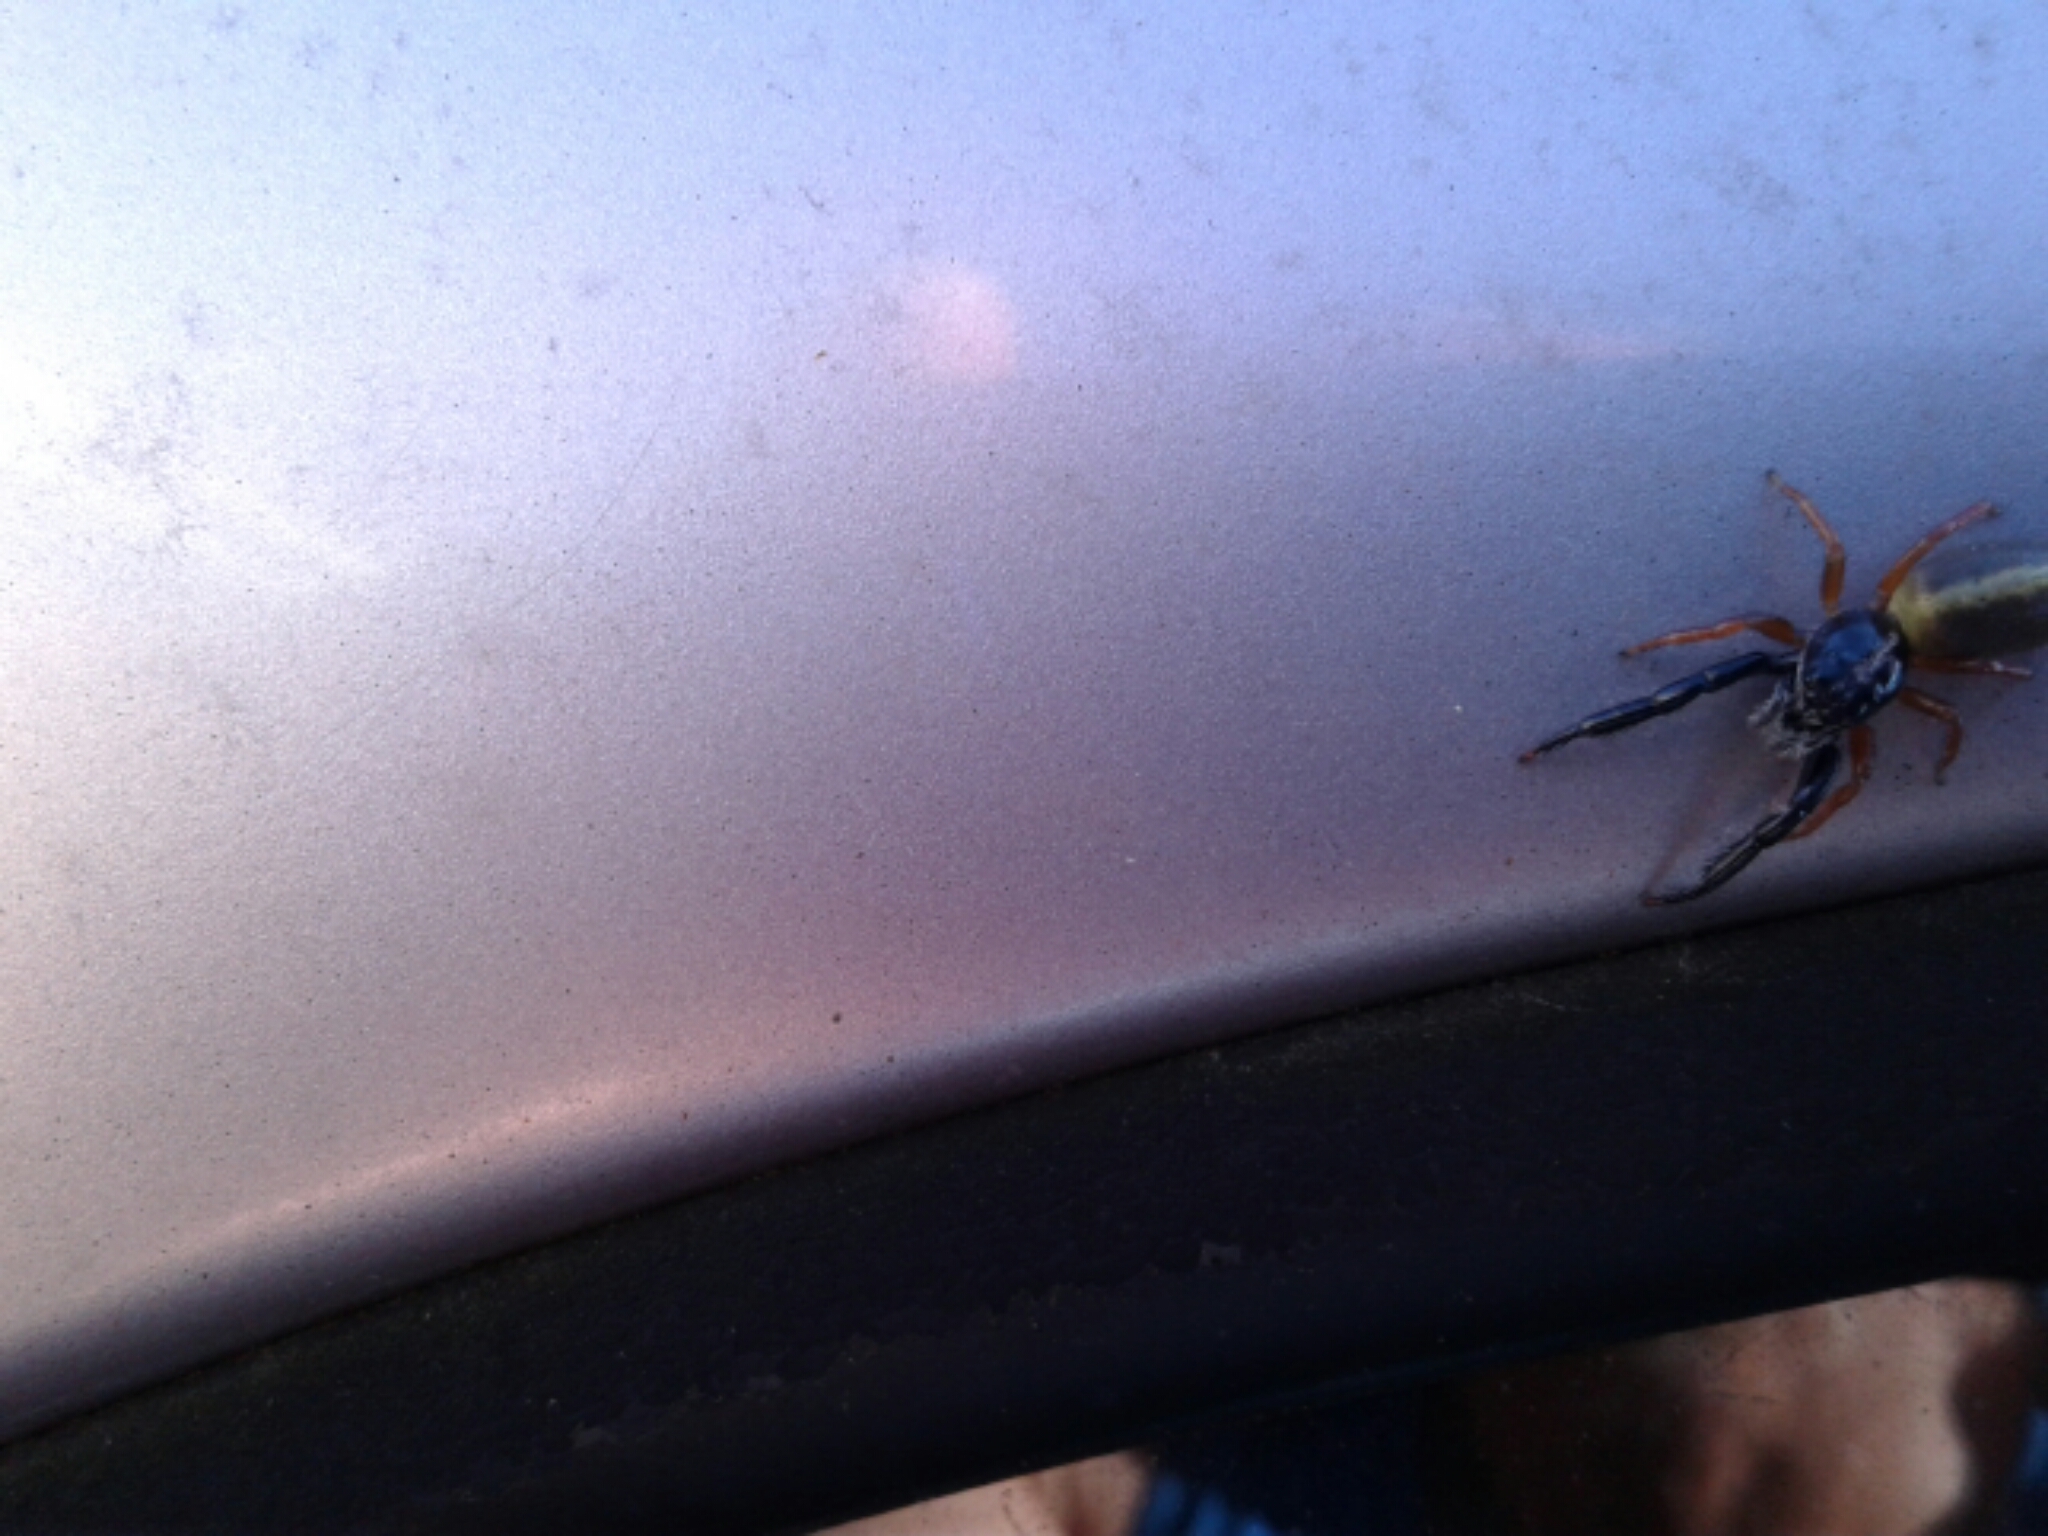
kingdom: Animalia
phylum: Arthropoda
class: Arachnida
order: Araneae
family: Salticidae
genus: Trite
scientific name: Trite planiceps
